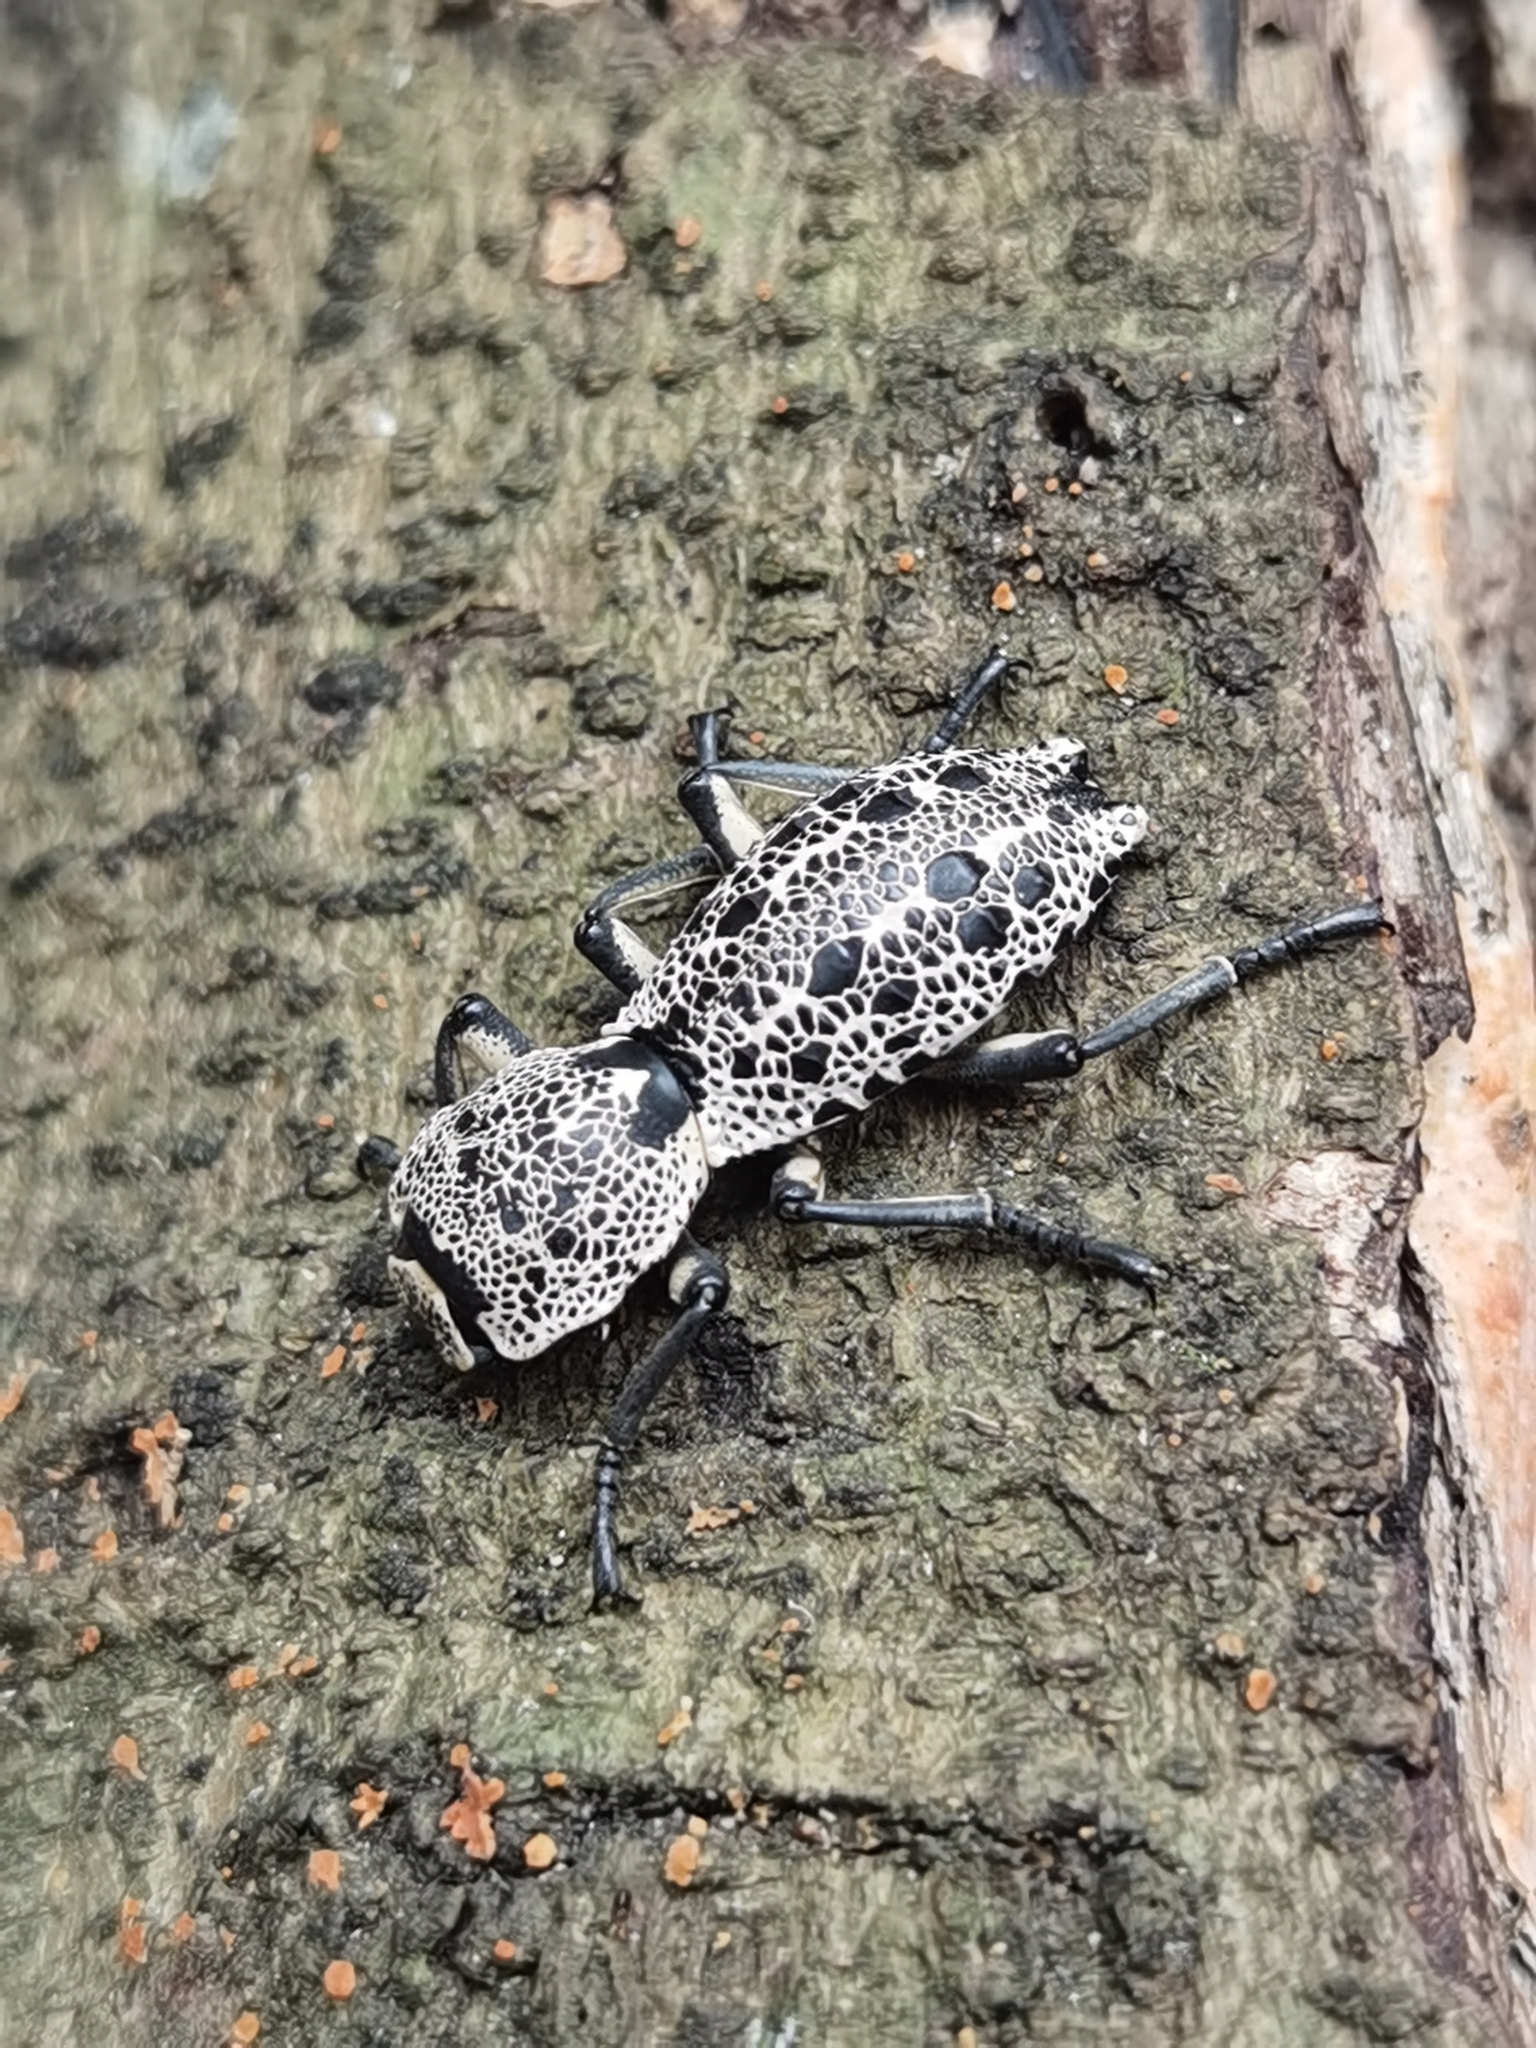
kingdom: Animalia
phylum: Arthropoda
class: Insecta
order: Coleoptera
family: Zopheridae
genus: Zopherus
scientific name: Zopherus
